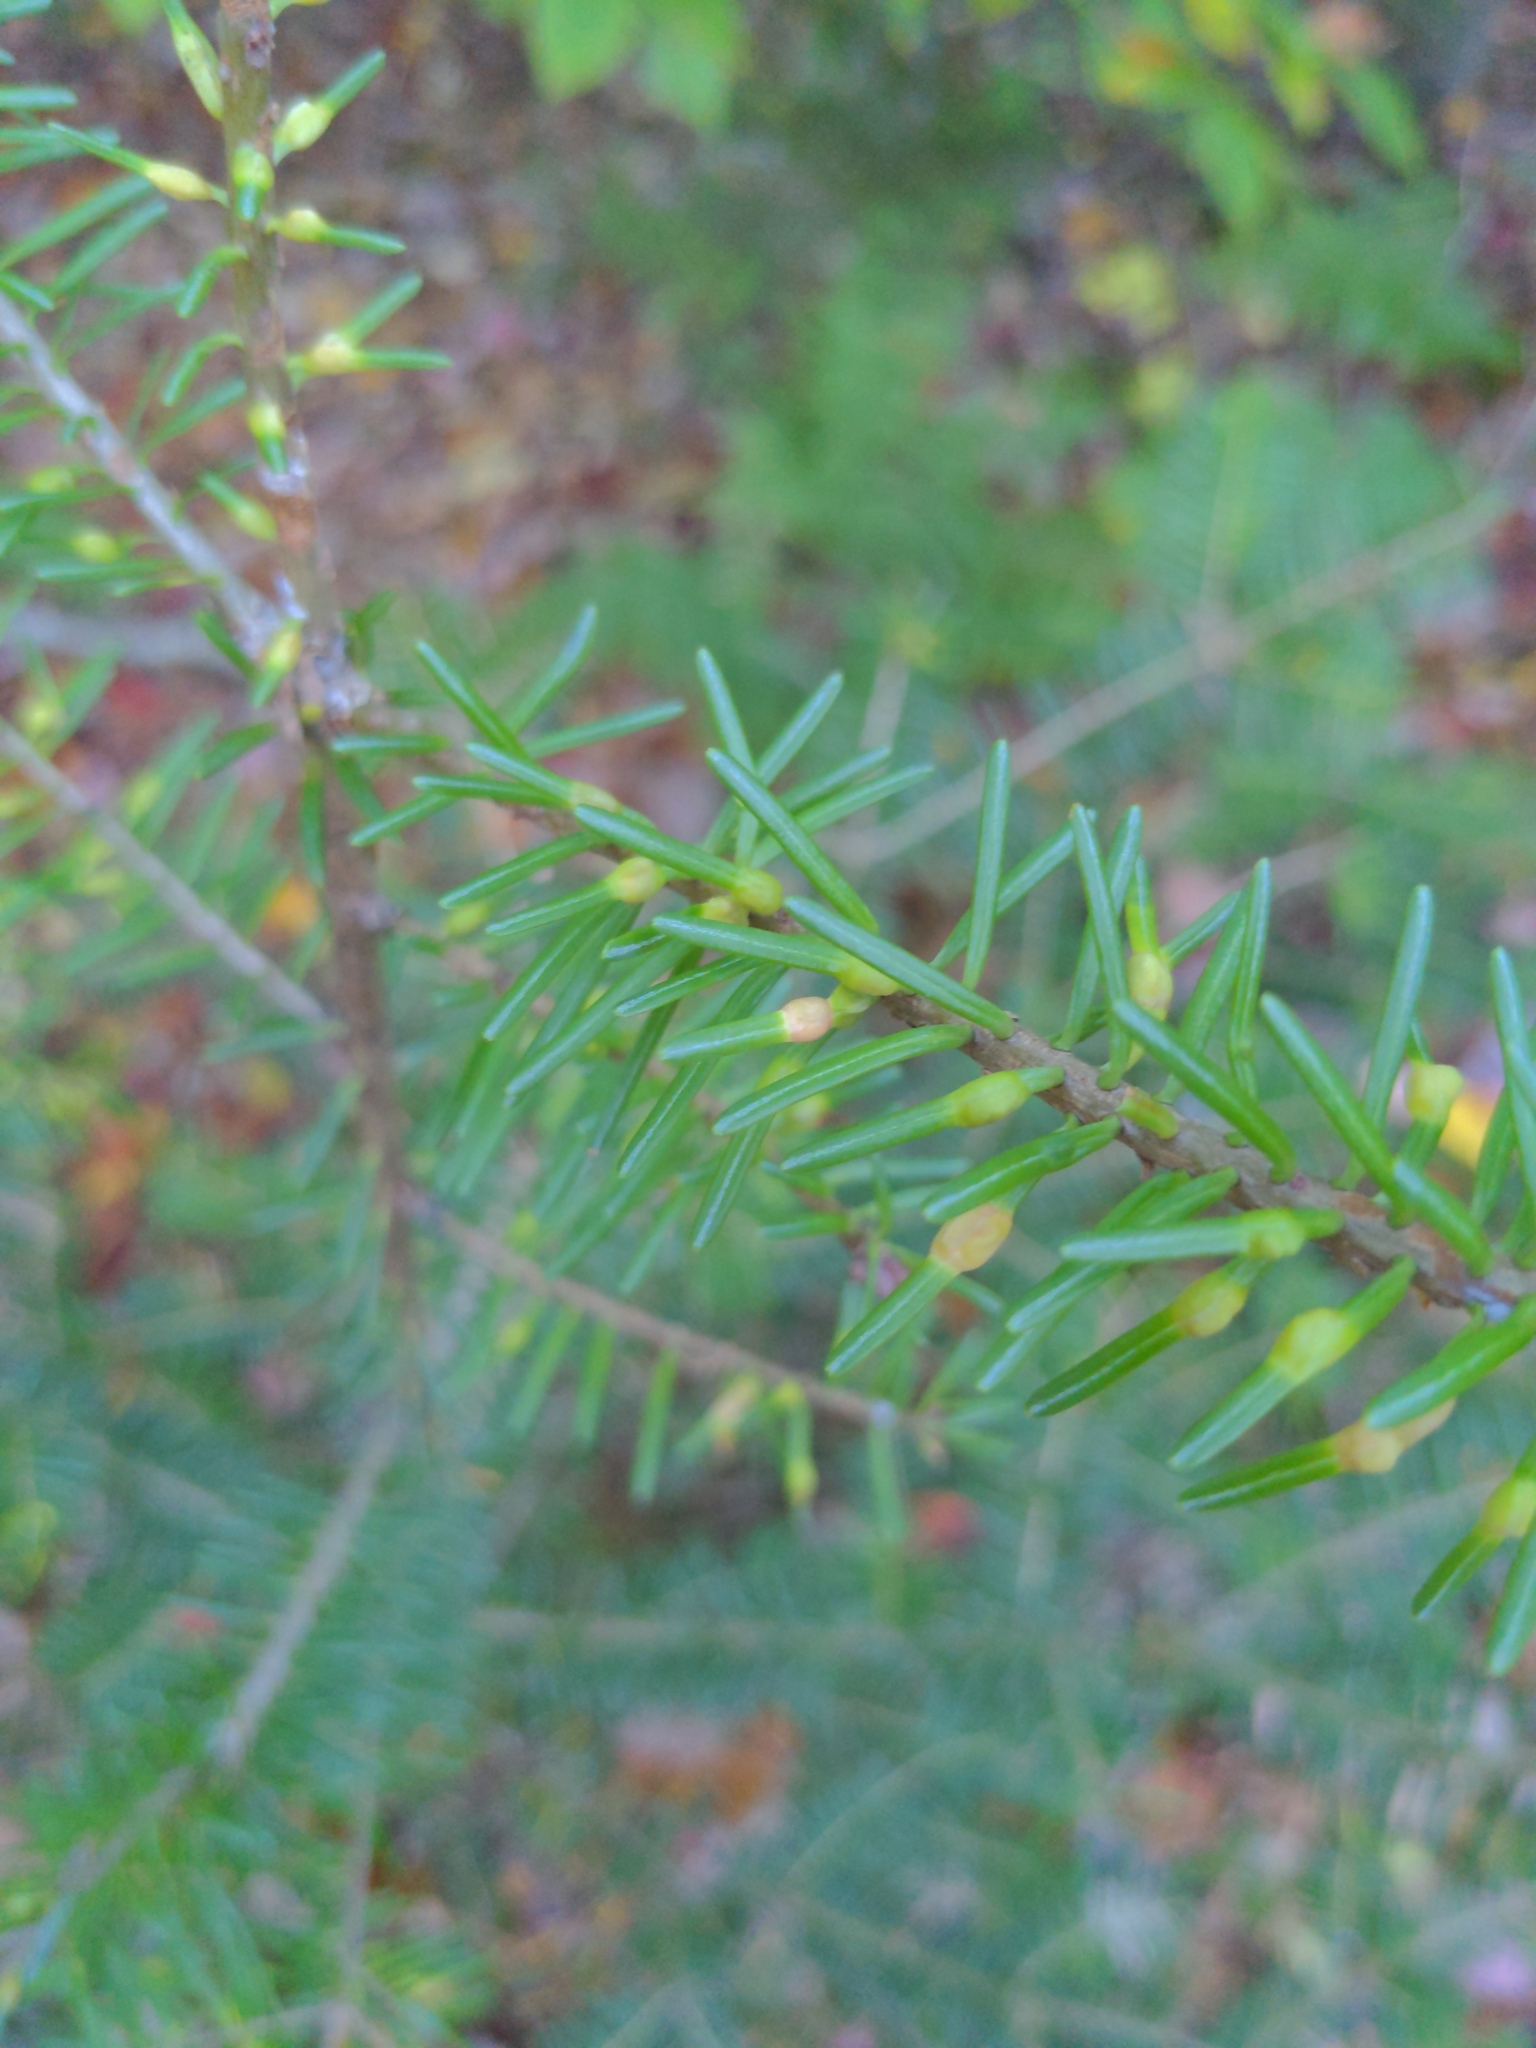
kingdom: Animalia
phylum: Arthropoda
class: Insecta
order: Diptera
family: Cecidomyiidae
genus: Paradiplosis
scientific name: Paradiplosis tumifex
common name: Gall midge
